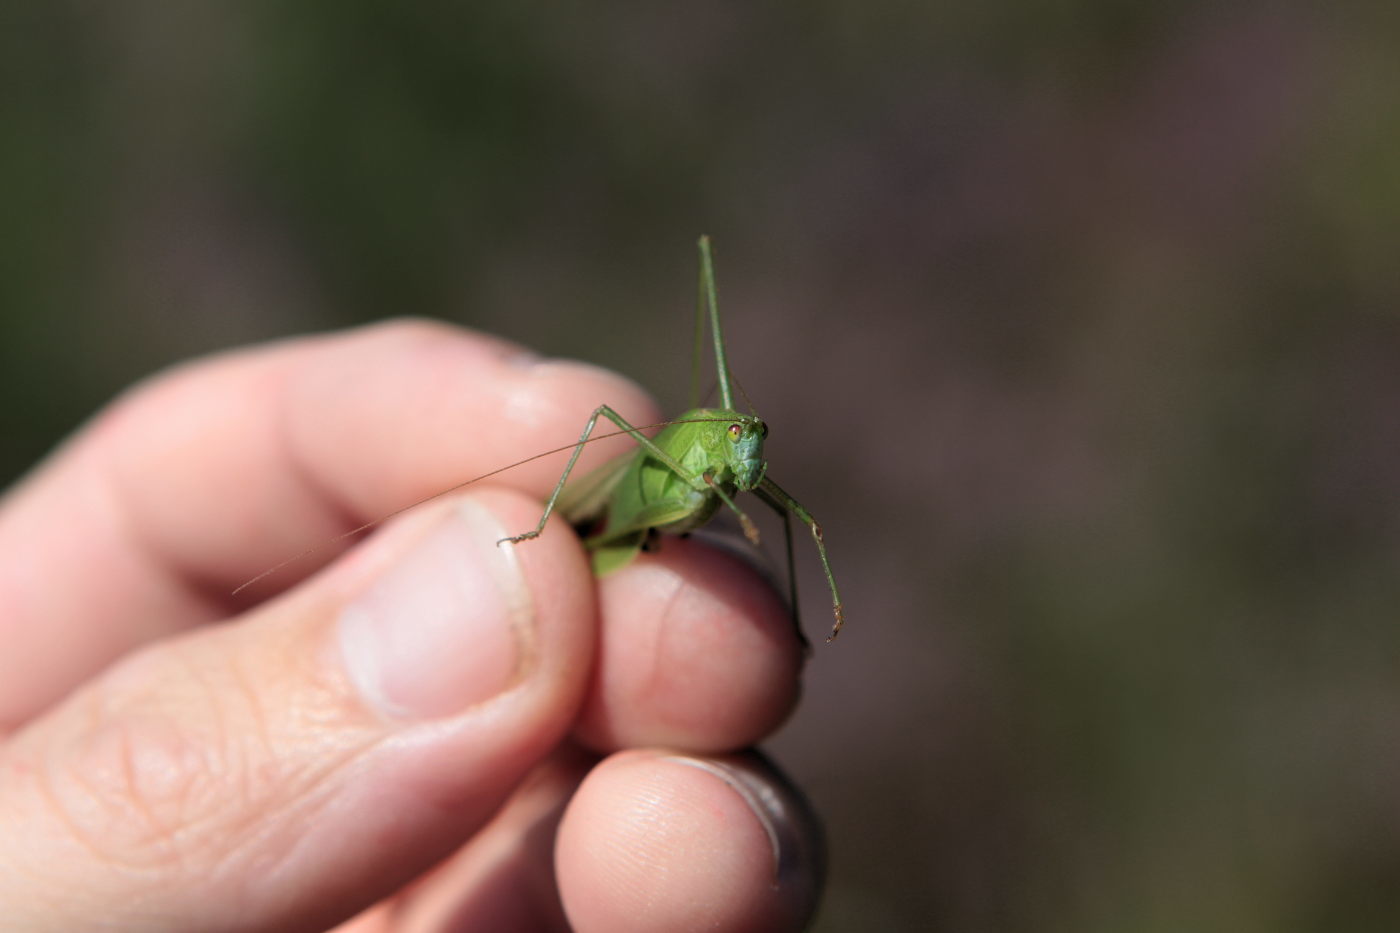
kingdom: Animalia
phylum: Arthropoda
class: Insecta
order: Orthoptera
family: Tettigoniidae
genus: Phaneroptera
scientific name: Phaneroptera falcata
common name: Sickle-bearing bush-cricket
